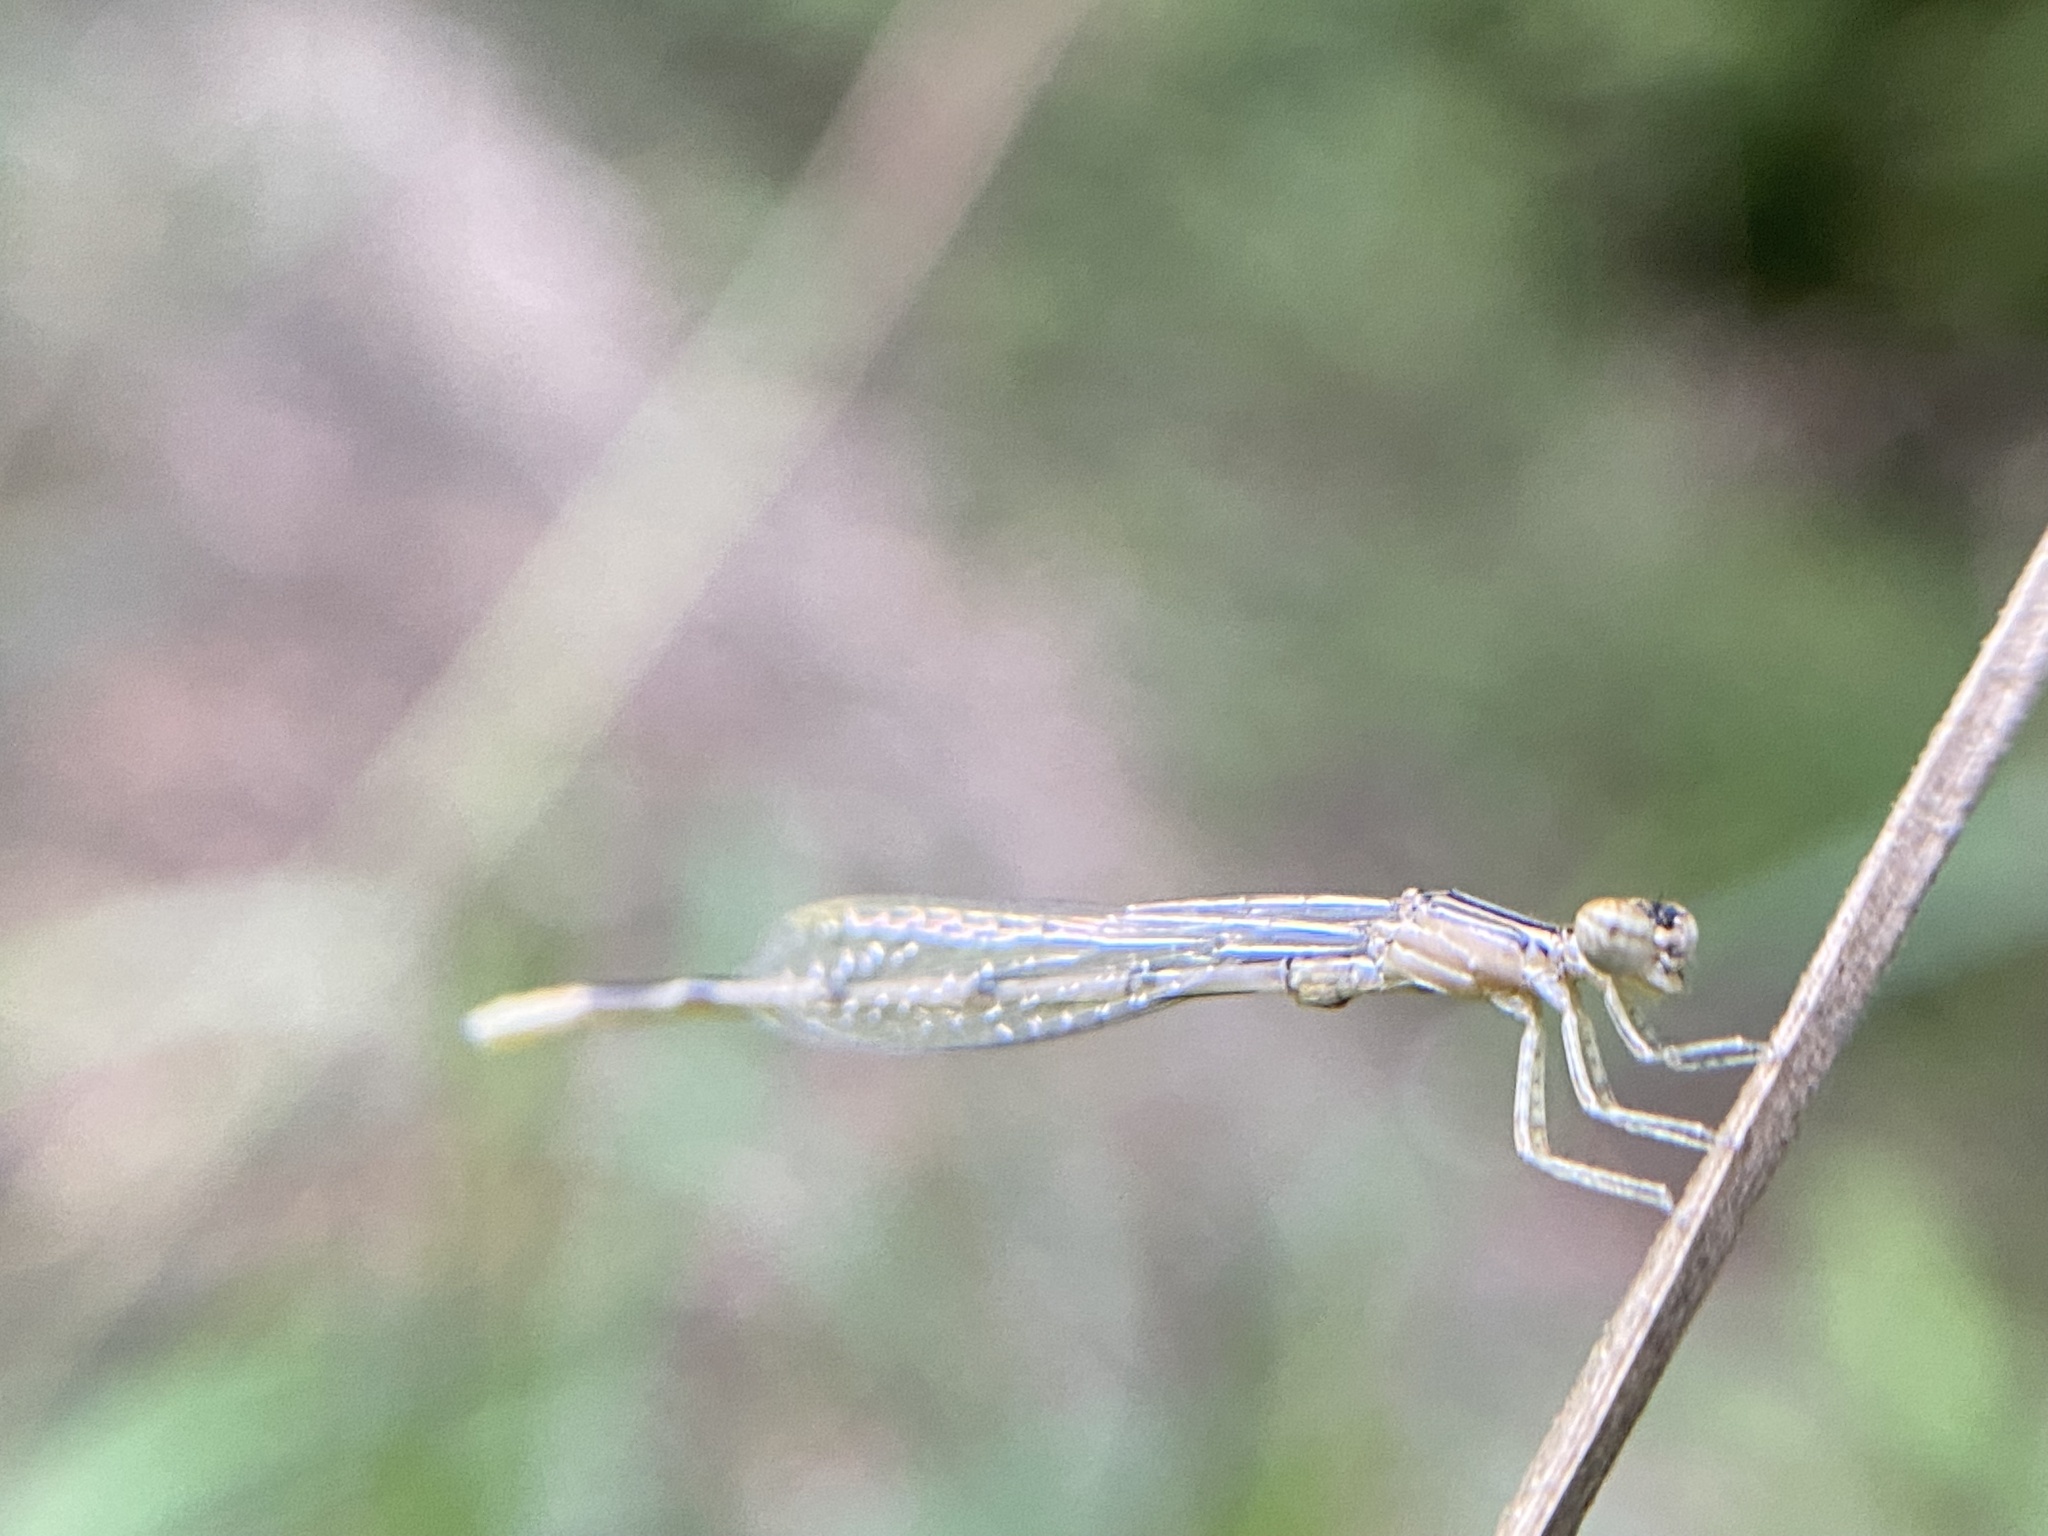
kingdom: Animalia
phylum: Arthropoda
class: Insecta
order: Odonata
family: Coenagrionidae
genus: Enallagma
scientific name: Enallagma basidens
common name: Double-striped bluet
